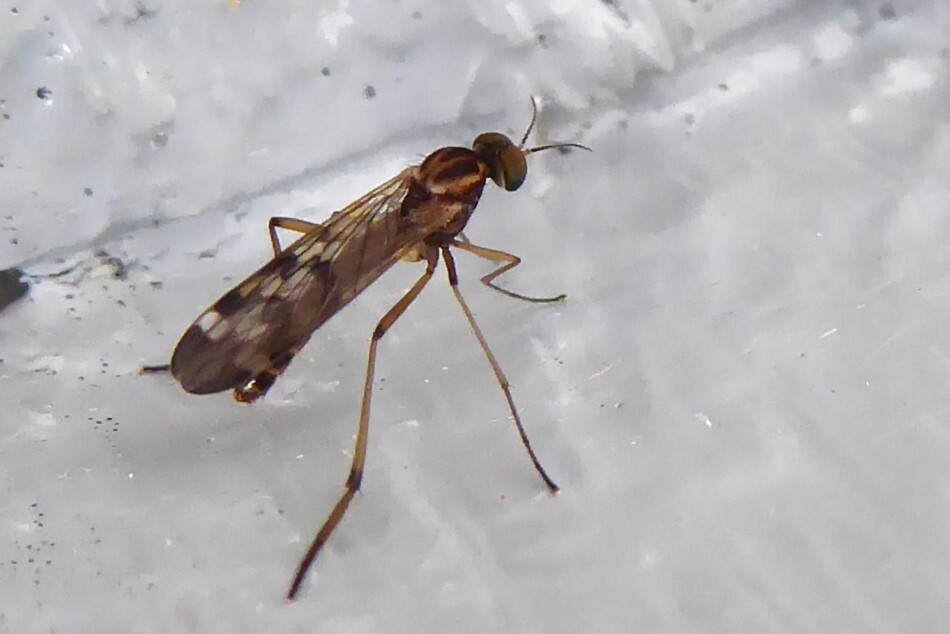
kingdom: Animalia
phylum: Arthropoda
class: Insecta
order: Diptera
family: Anisopodidae
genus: Sylvicola
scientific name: Sylvicola notatus
